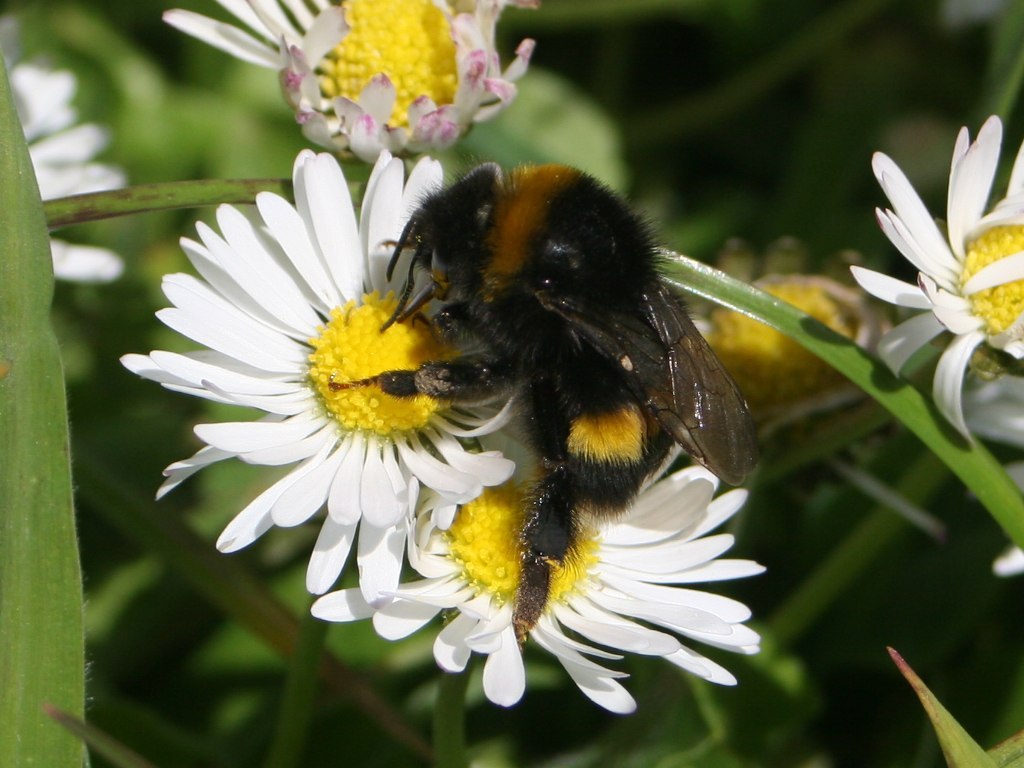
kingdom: Animalia
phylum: Arthropoda
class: Insecta
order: Hymenoptera
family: Apidae
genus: Bombus
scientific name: Bombus terrestris
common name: Buff-tailed bumblebee
